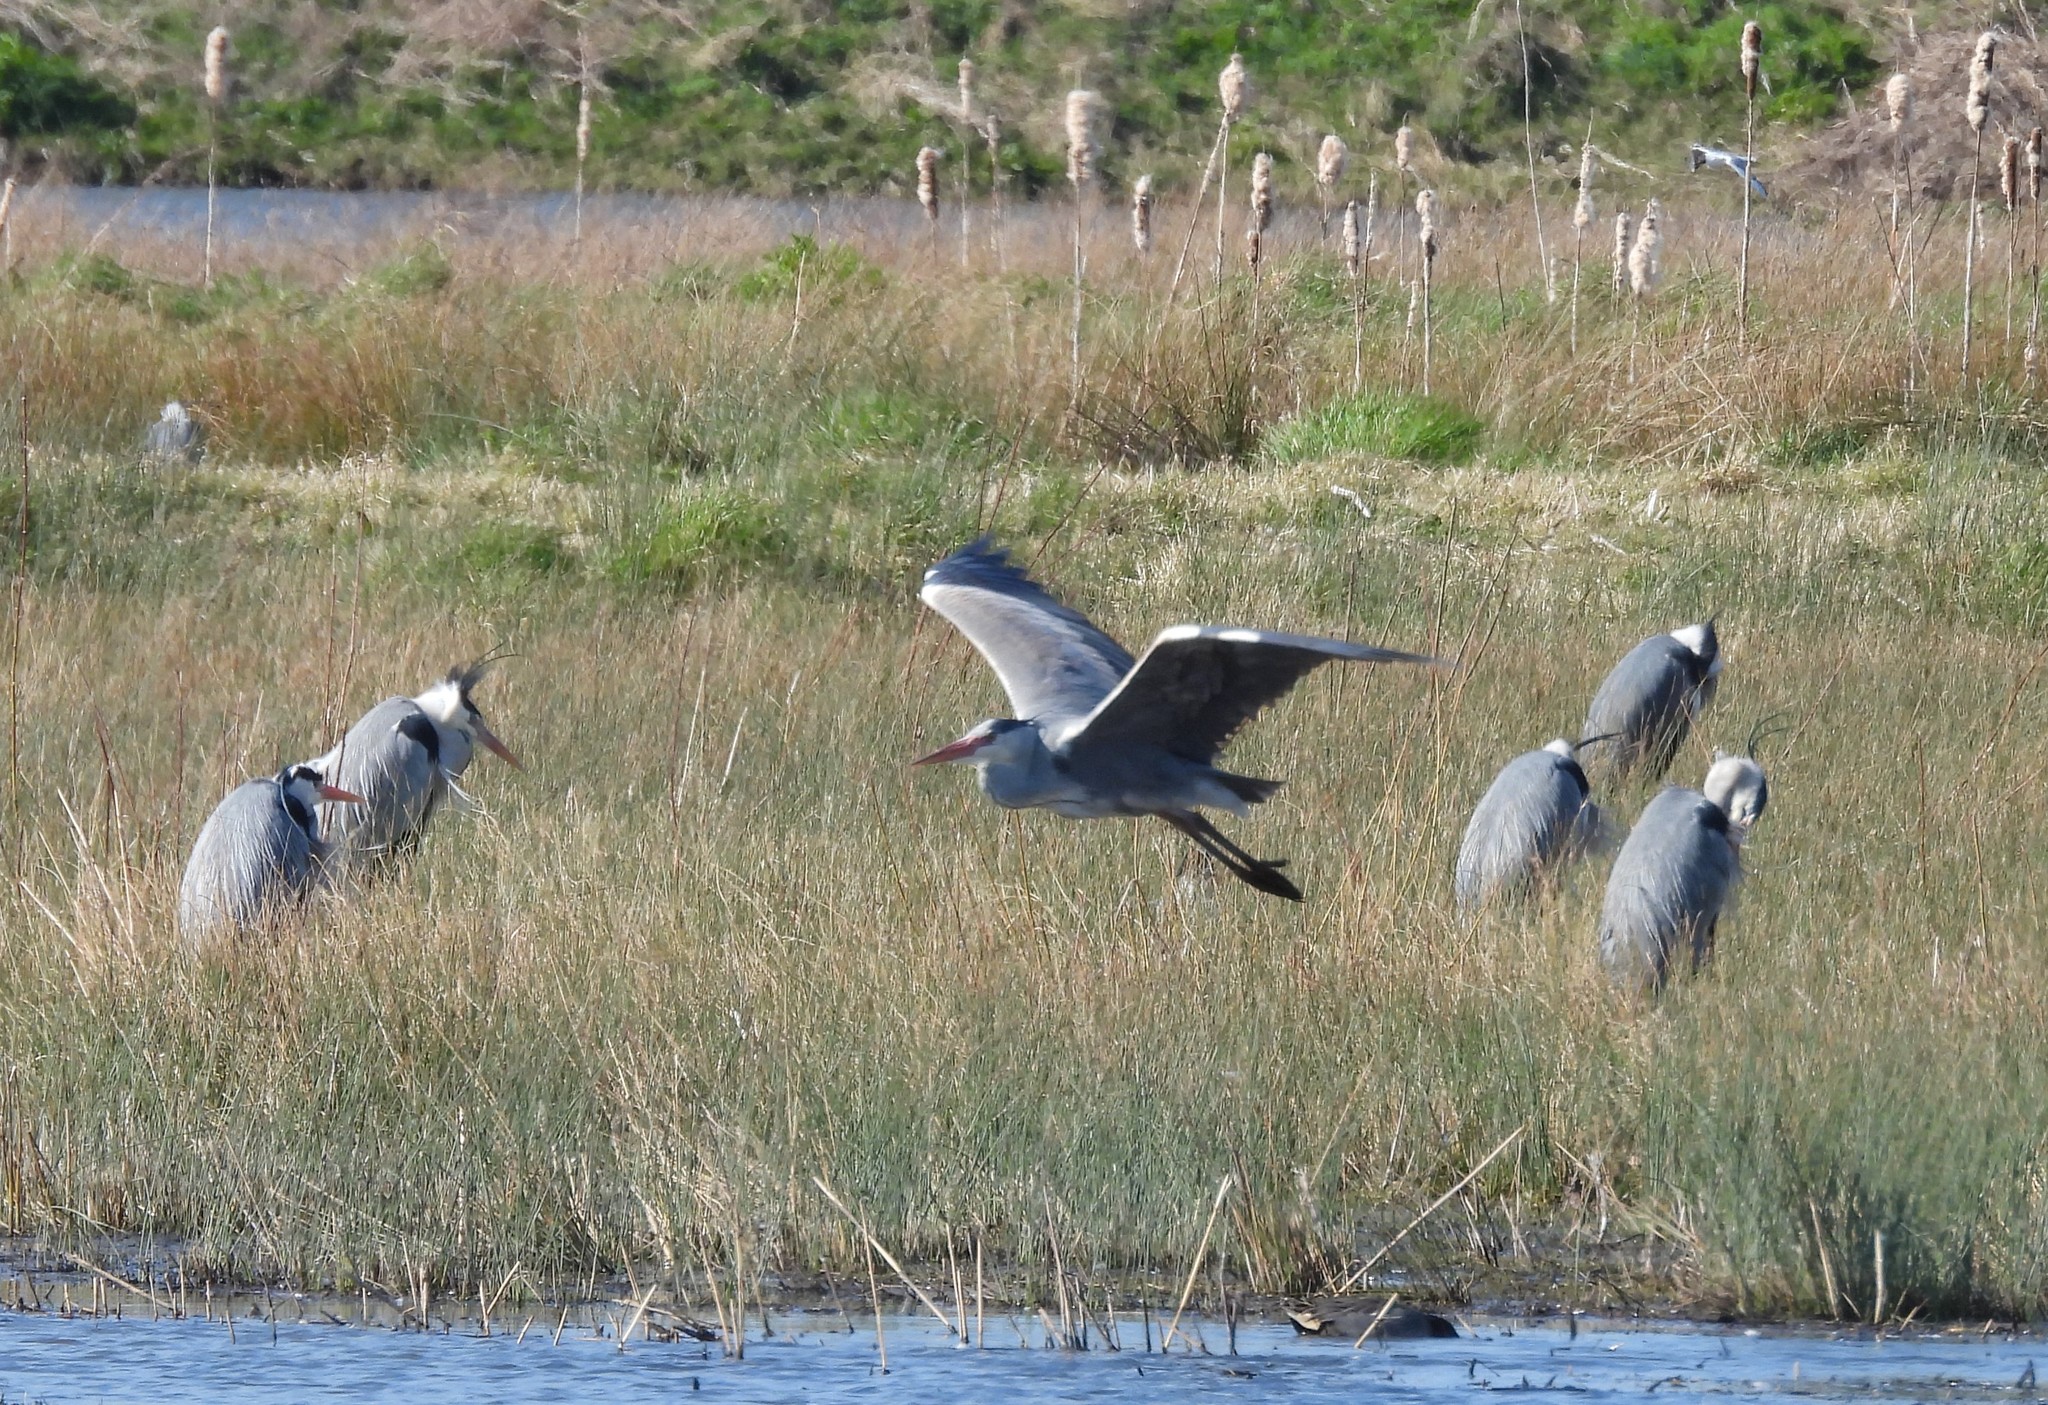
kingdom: Animalia
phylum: Chordata
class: Aves
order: Pelecaniformes
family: Ardeidae
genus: Ardea
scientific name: Ardea cinerea
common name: Grey heron
